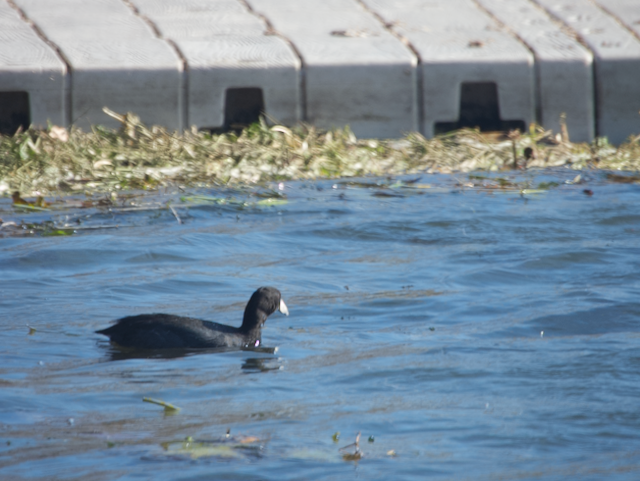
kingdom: Animalia
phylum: Chordata
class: Aves
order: Gruiformes
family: Rallidae
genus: Fulica
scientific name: Fulica americana
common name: American coot
